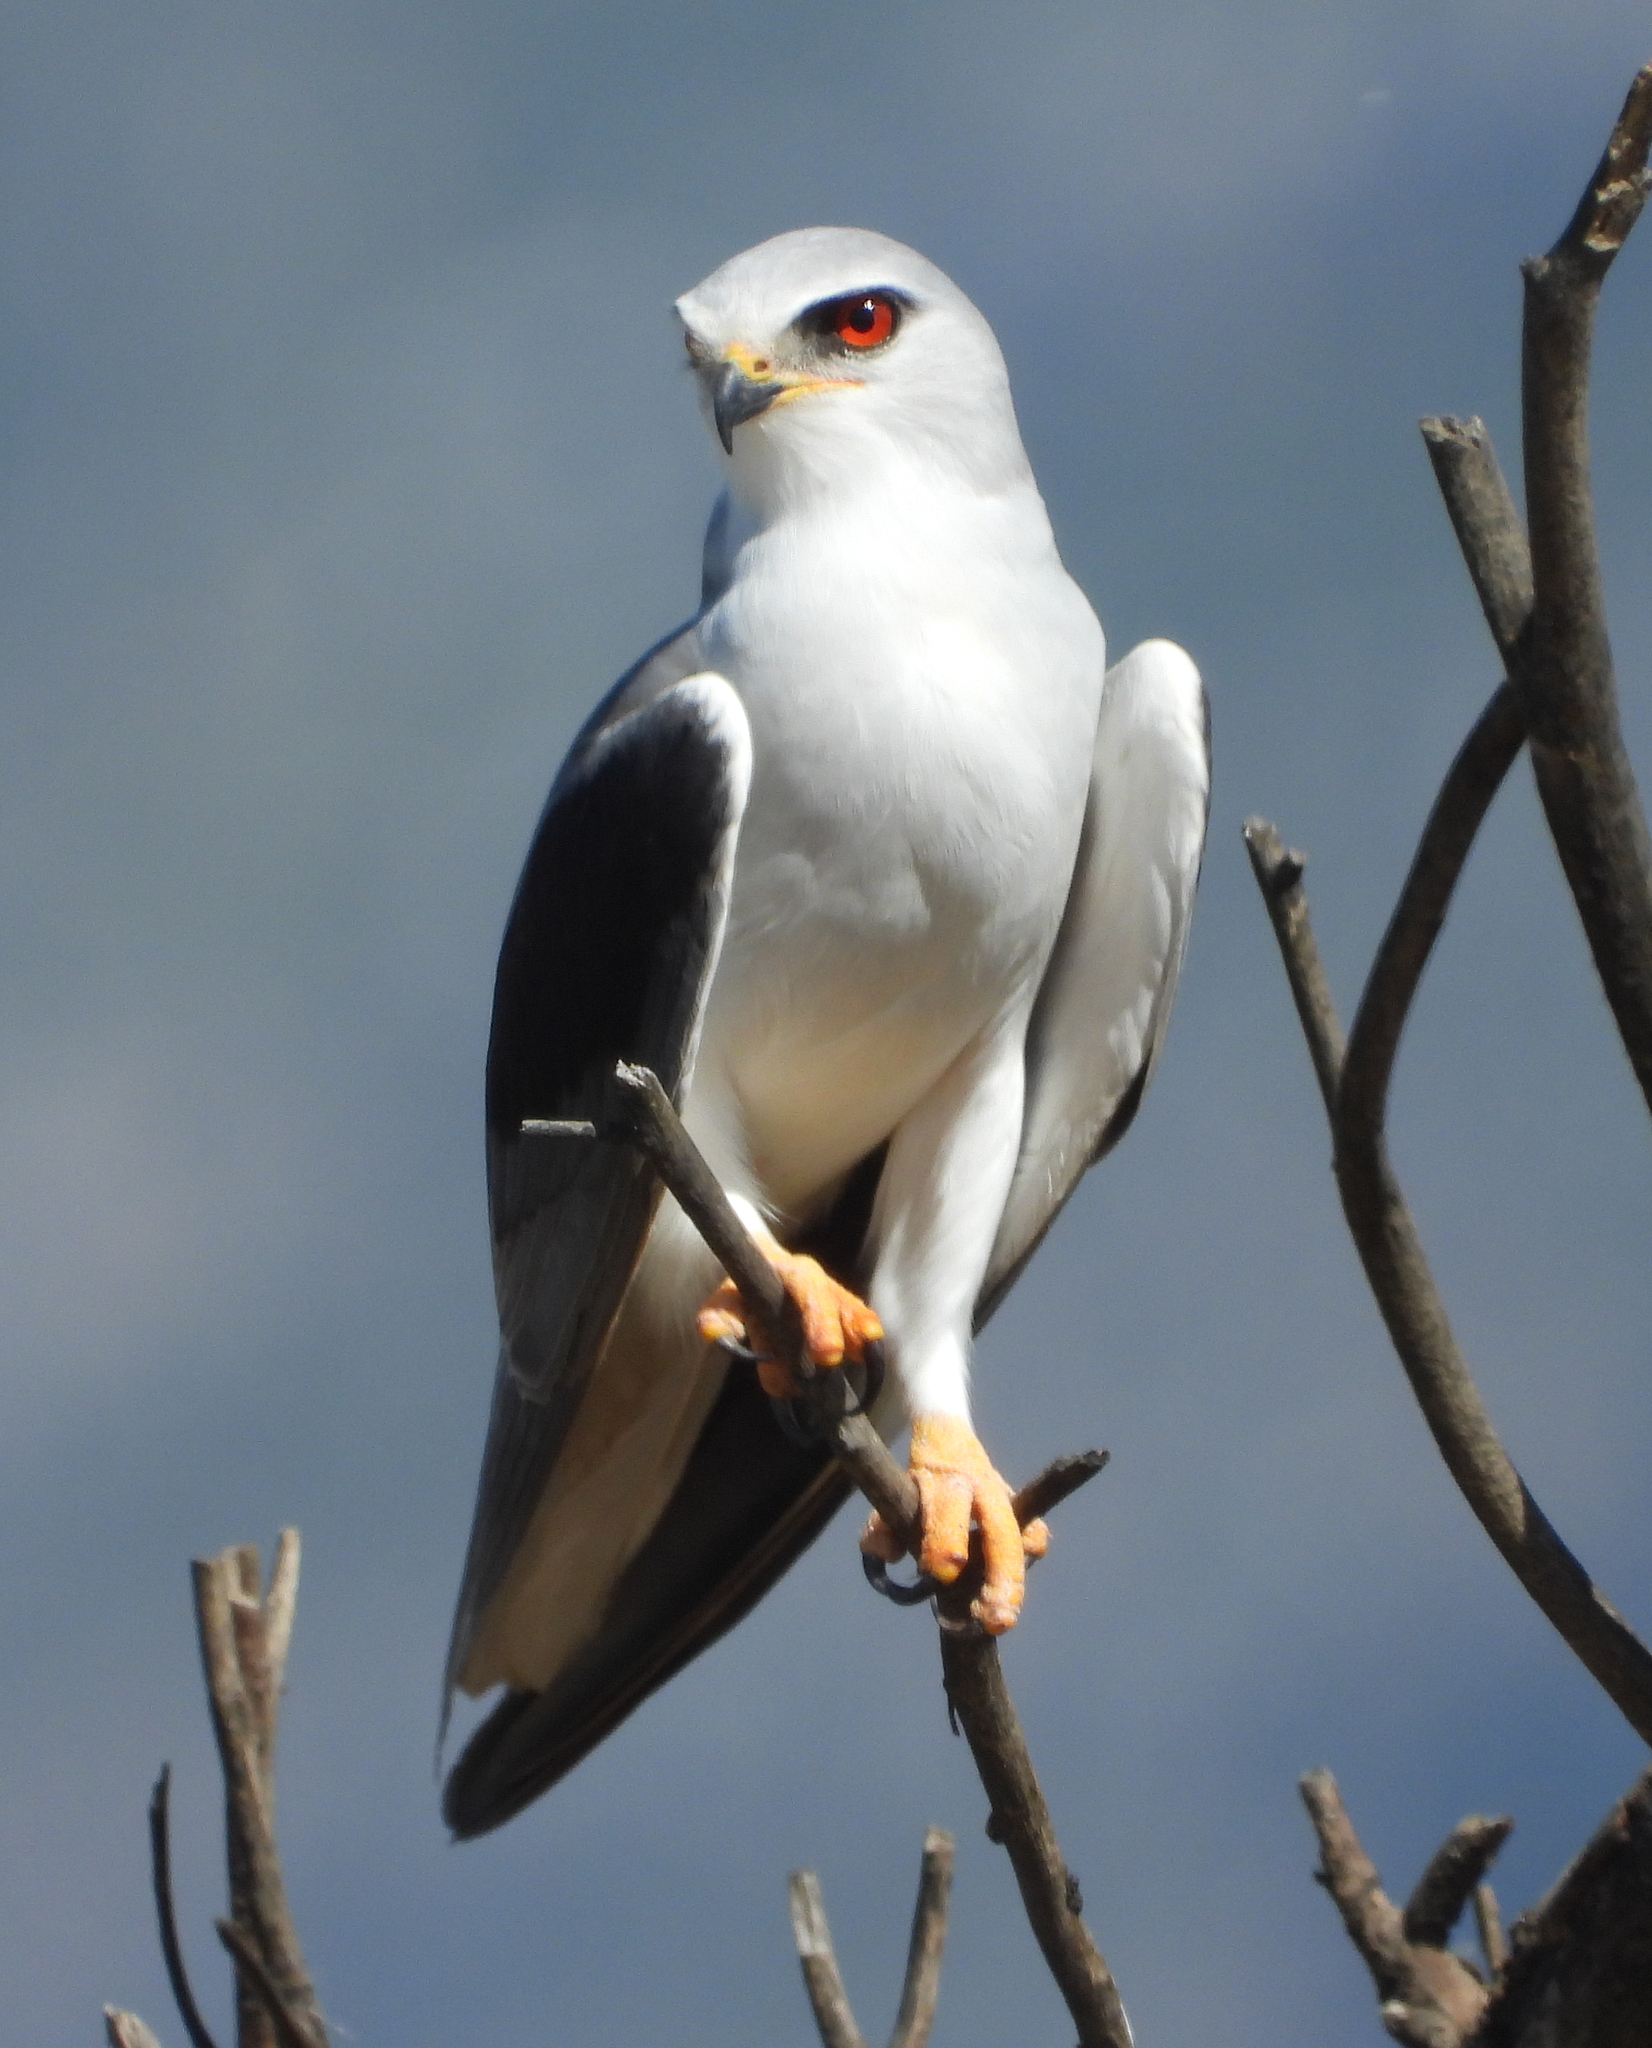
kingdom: Animalia
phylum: Chordata
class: Aves
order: Accipitriformes
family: Accipitridae
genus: Elanus
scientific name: Elanus caeruleus
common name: Black-winged kite
